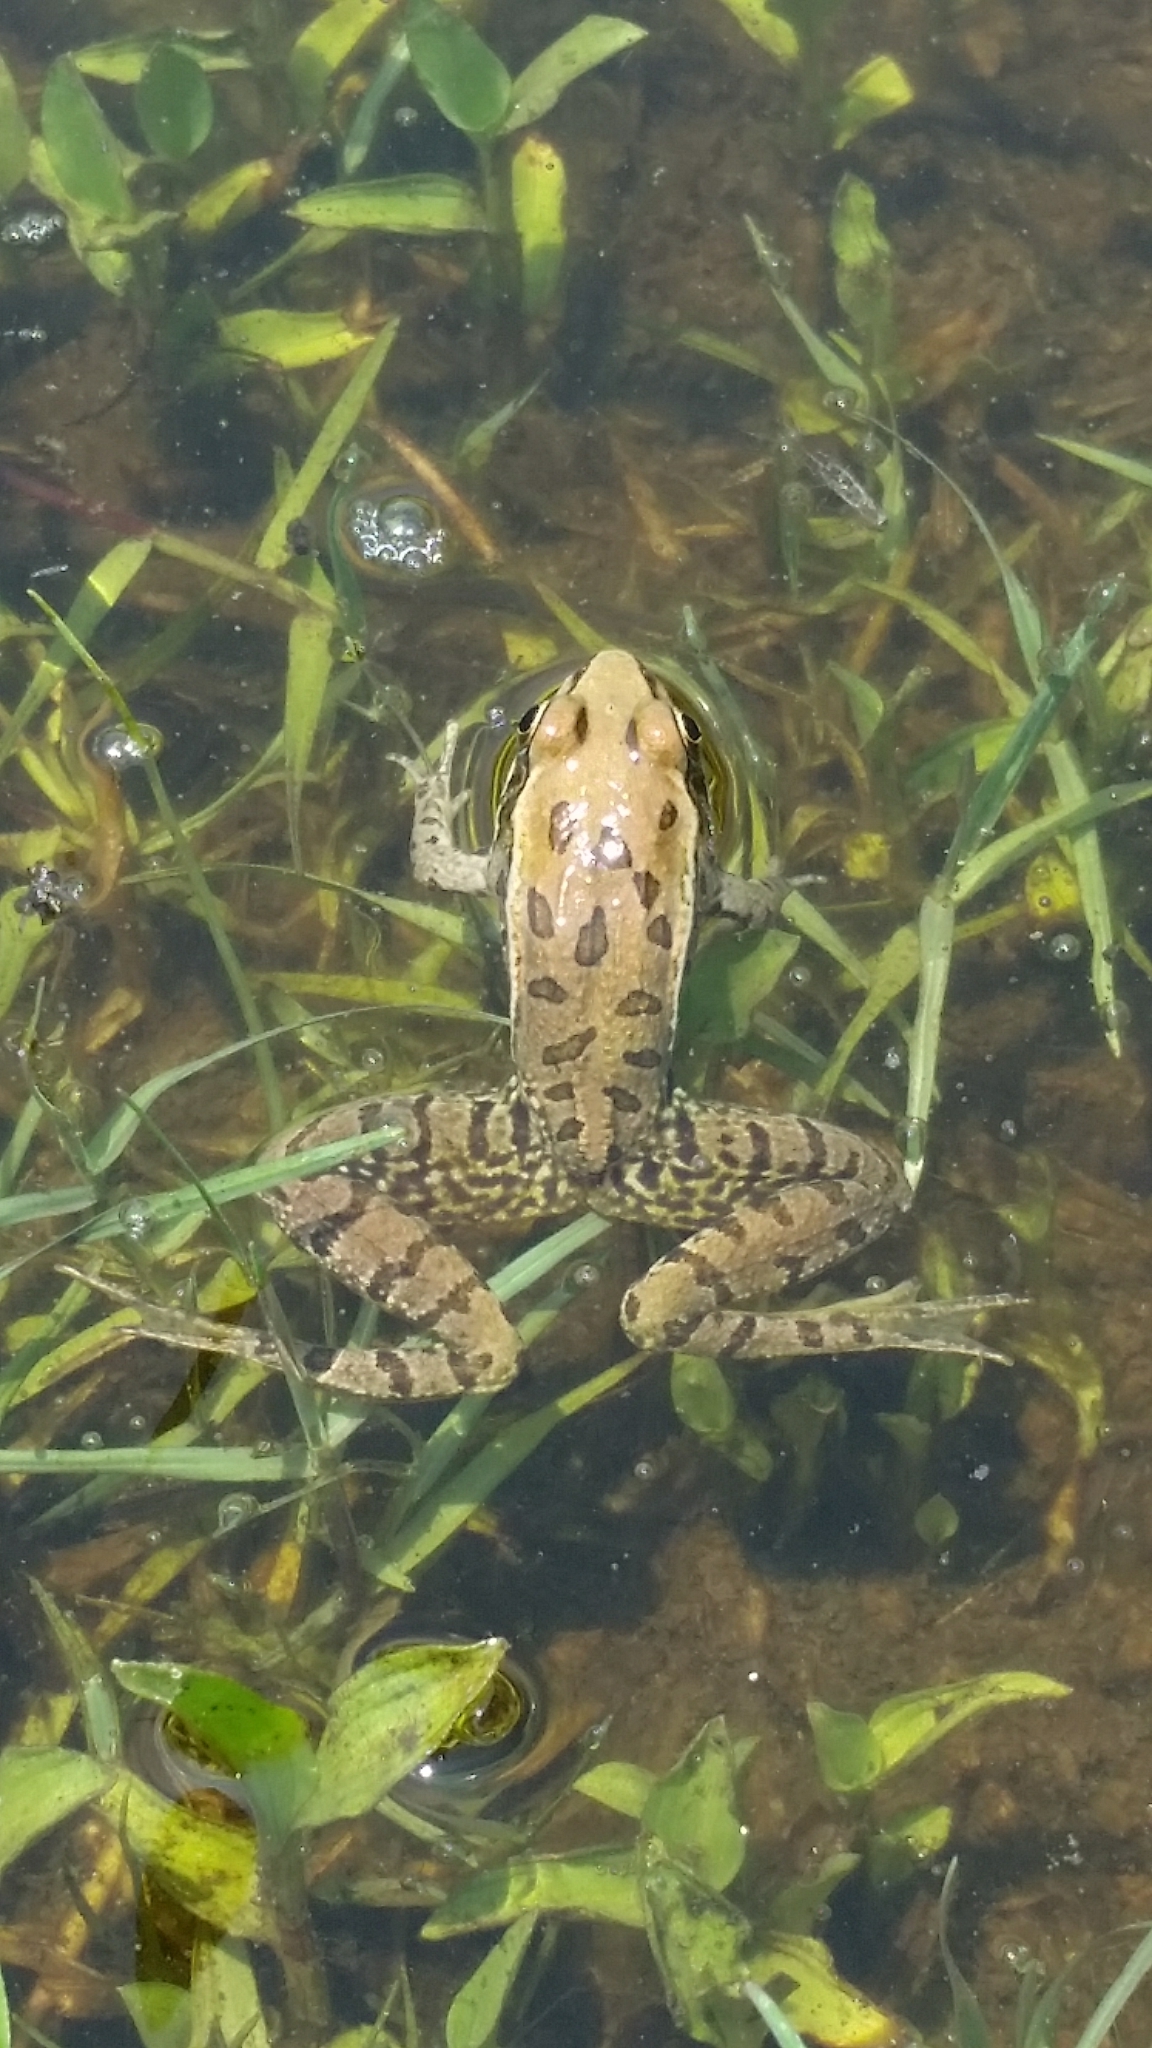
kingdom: Animalia
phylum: Chordata
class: Amphibia
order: Anura
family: Ranidae
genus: Lithobates
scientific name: Lithobates spectabilis
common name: Showy leopard frog
